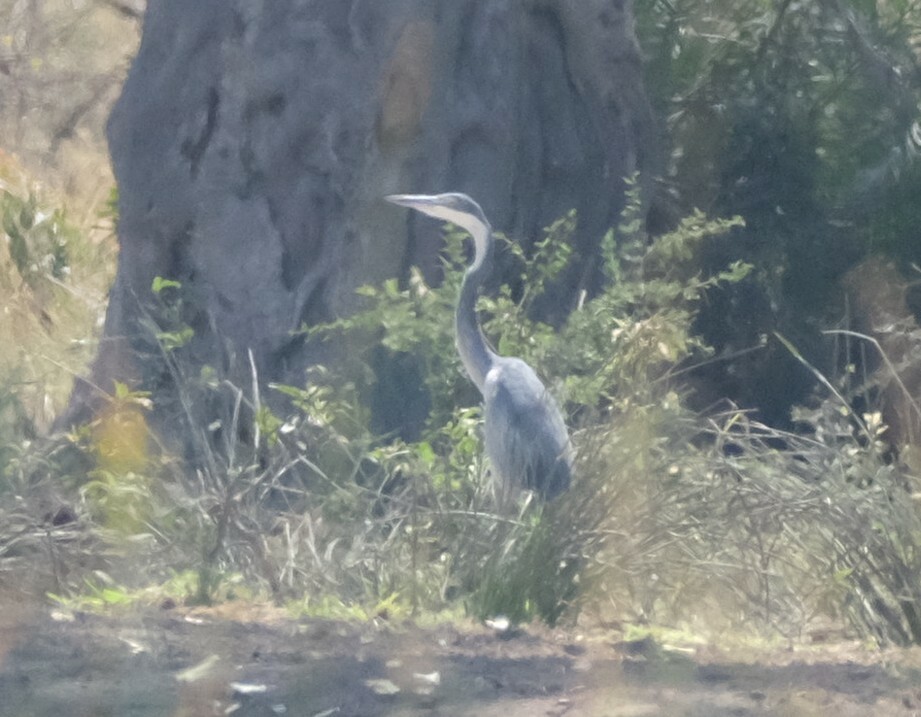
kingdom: Animalia
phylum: Chordata
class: Aves
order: Pelecaniformes
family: Ardeidae
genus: Ardea
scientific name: Ardea melanocephala
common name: Black-headed heron
